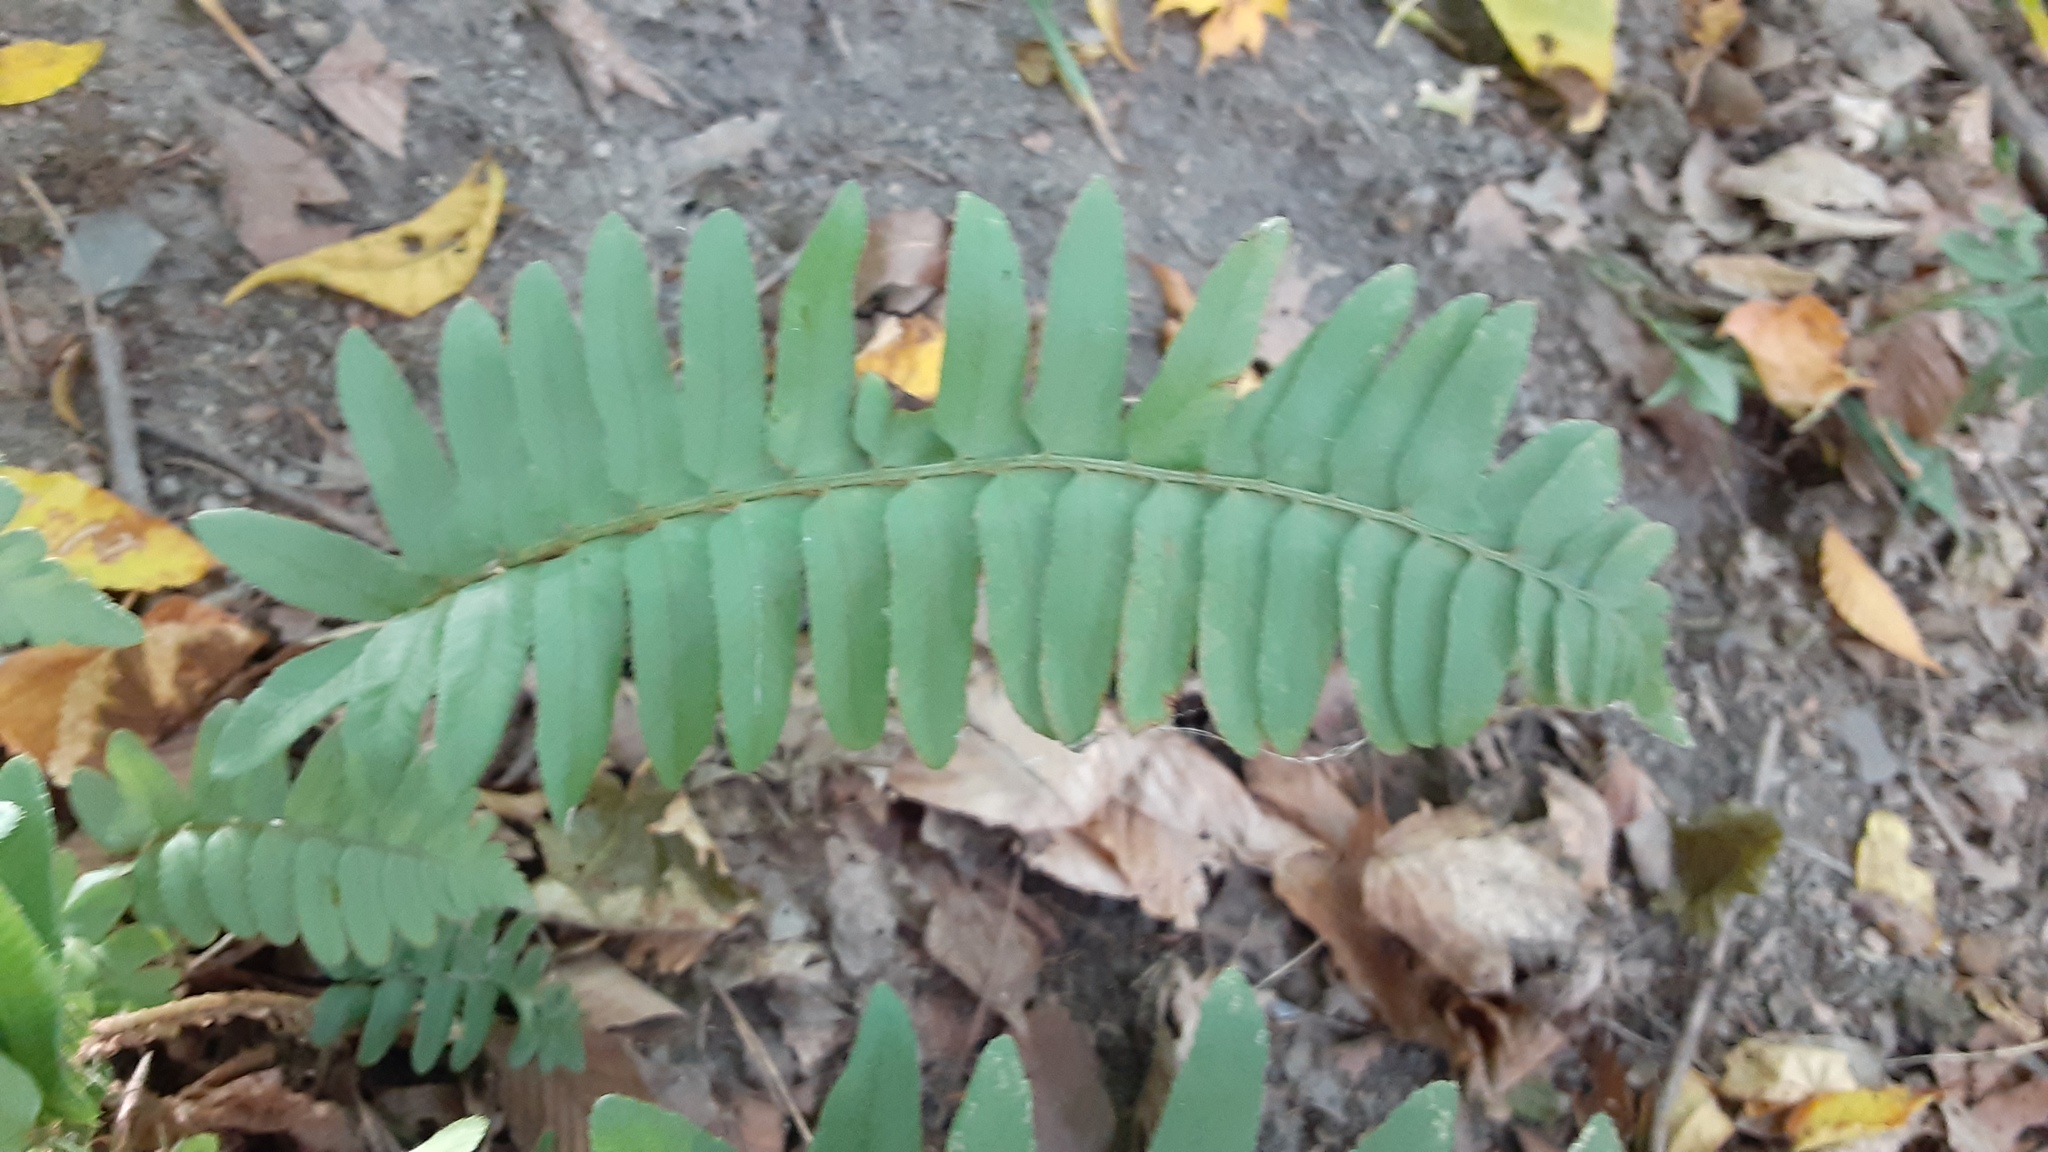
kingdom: Plantae
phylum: Tracheophyta
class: Polypodiopsida
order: Polypodiales
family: Dryopteridaceae
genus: Polystichum
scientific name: Polystichum acrostichoides
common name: Christmas fern
